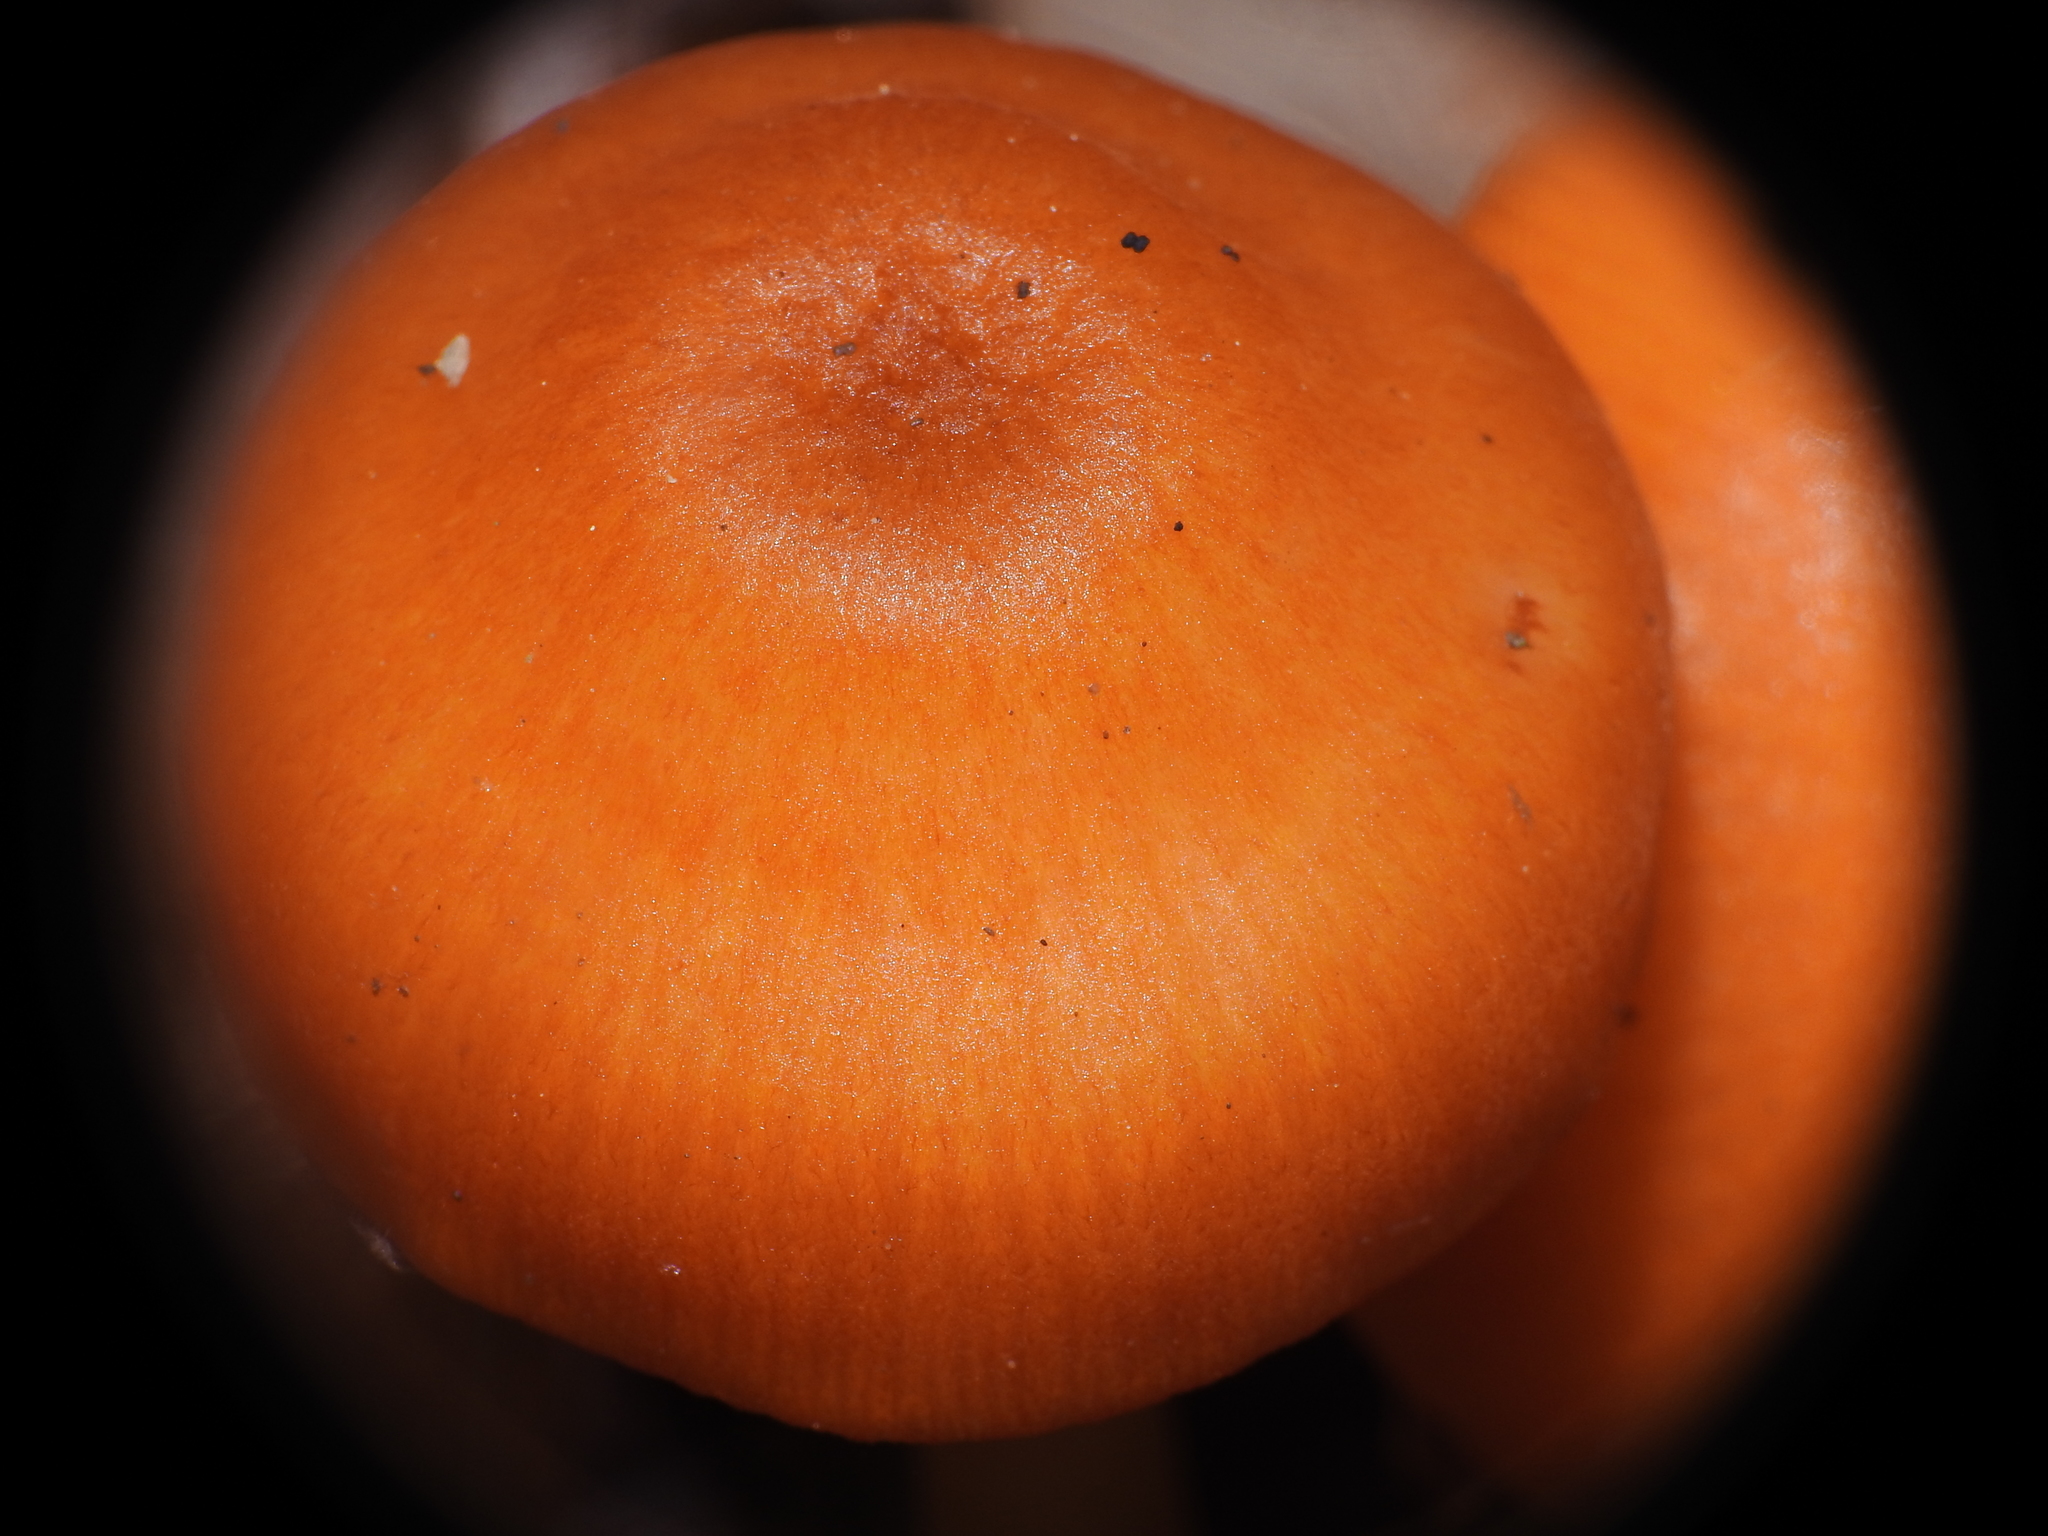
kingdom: Fungi
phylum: Basidiomycota
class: Agaricomycetes
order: Agaricales
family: Mycenaceae
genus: Mycena
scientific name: Mycena leaiana
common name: Orange mycena
